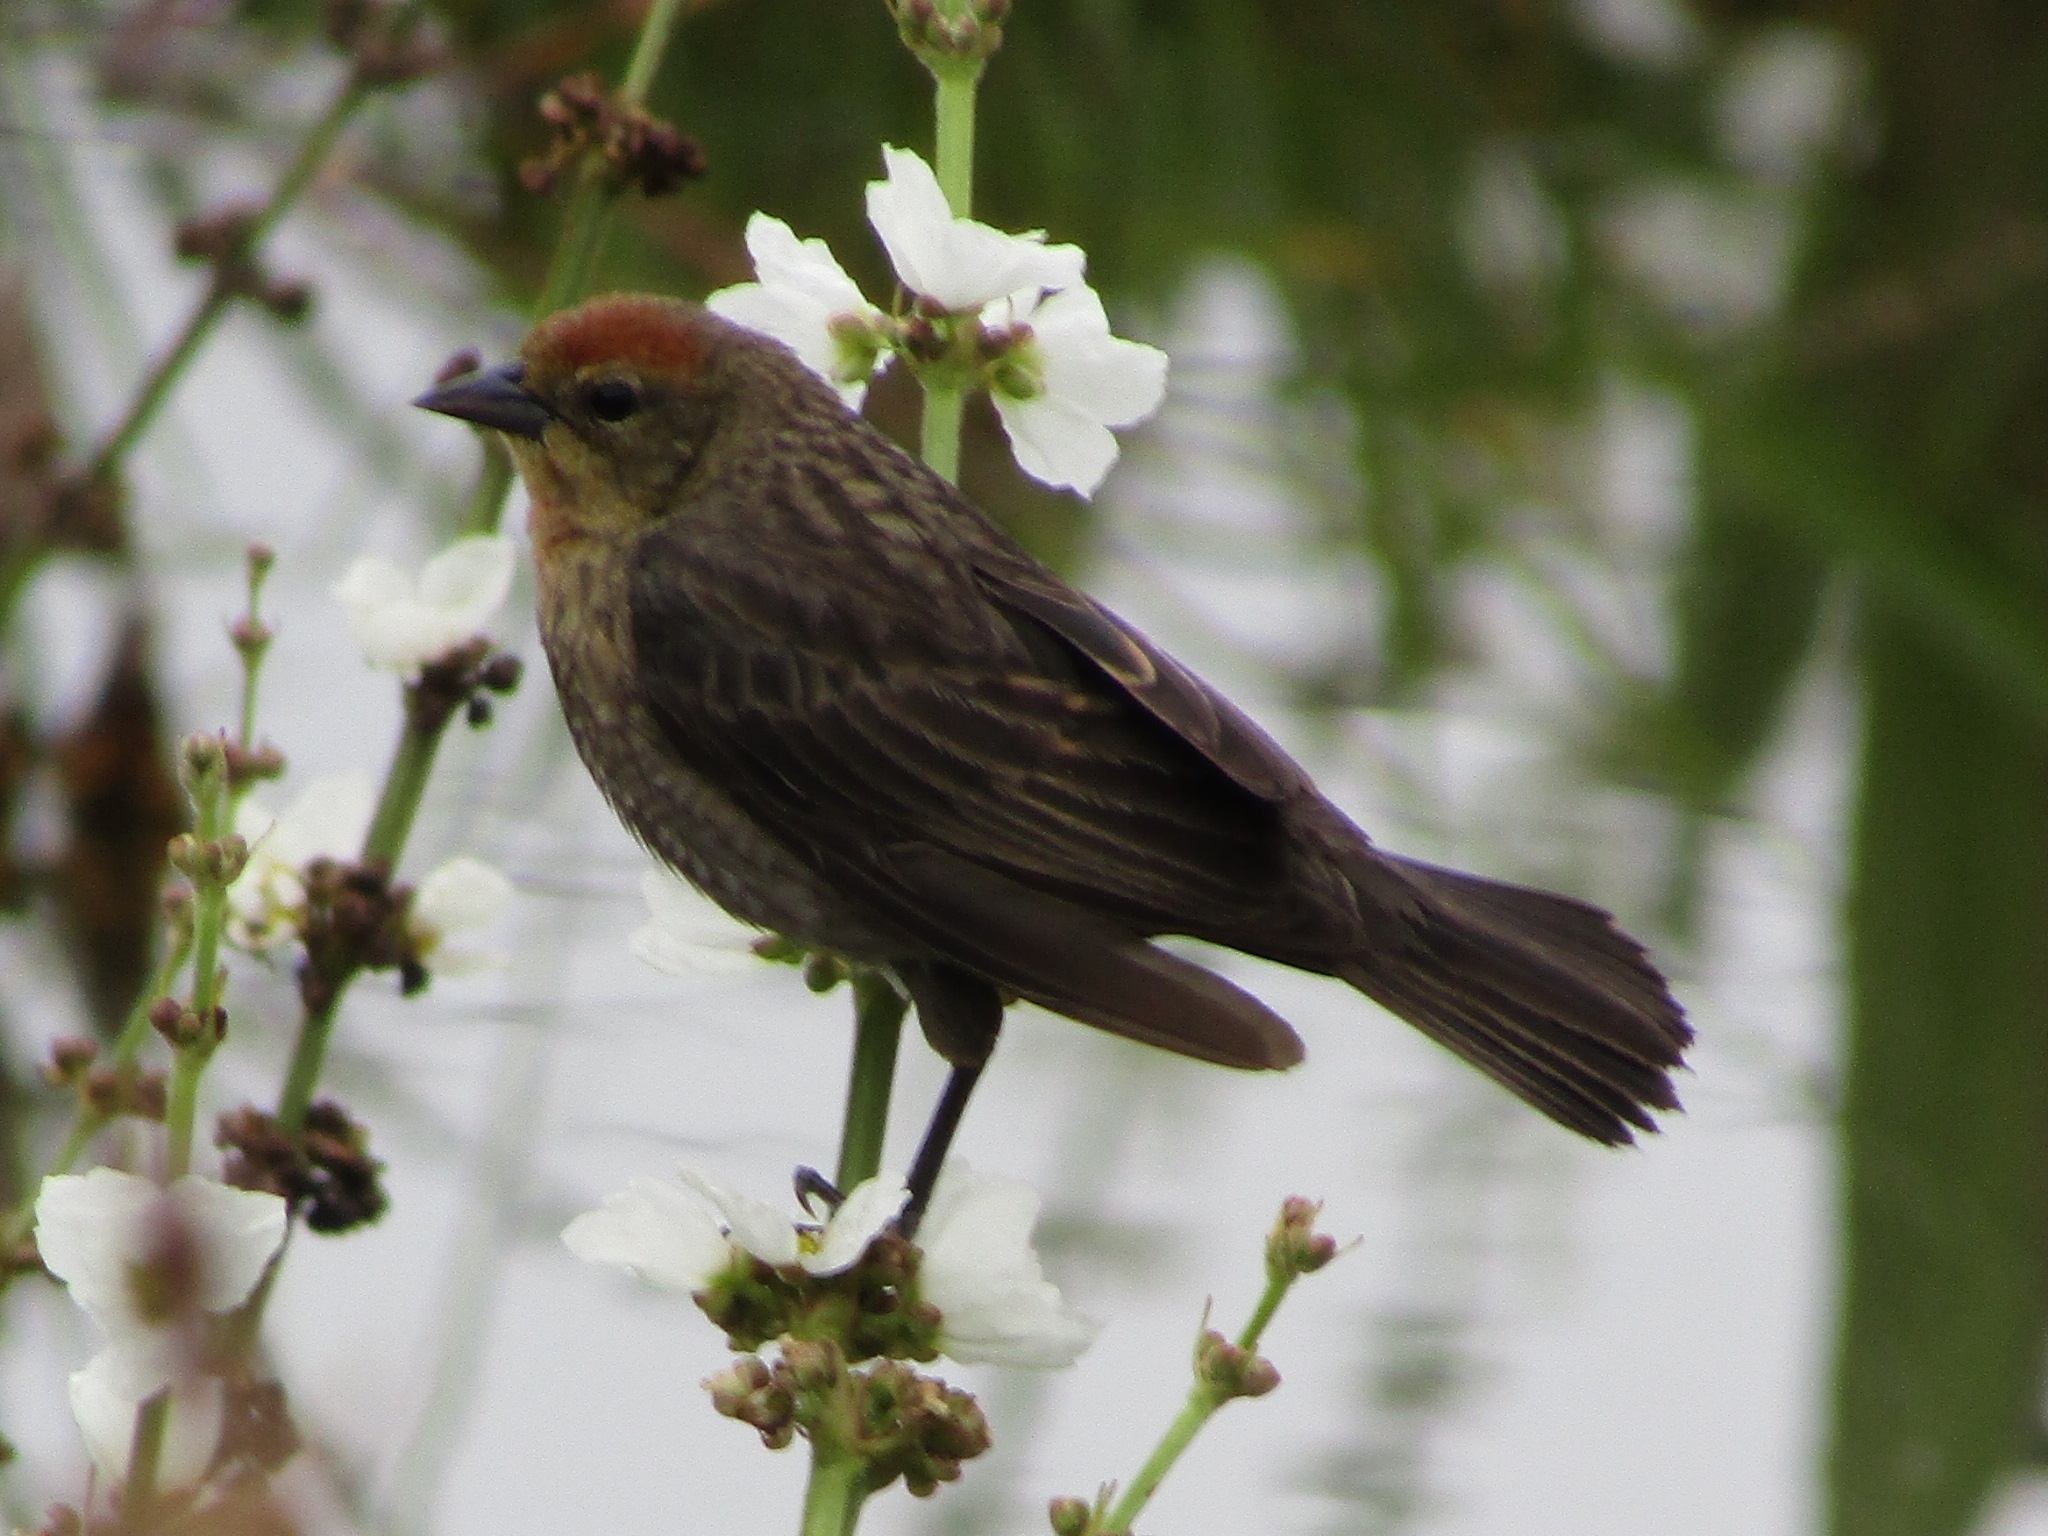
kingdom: Animalia
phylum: Chordata
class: Aves
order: Passeriformes
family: Icteridae
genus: Chrysomus
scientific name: Chrysomus ruficapillus
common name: Chestnut-capped blackbird
